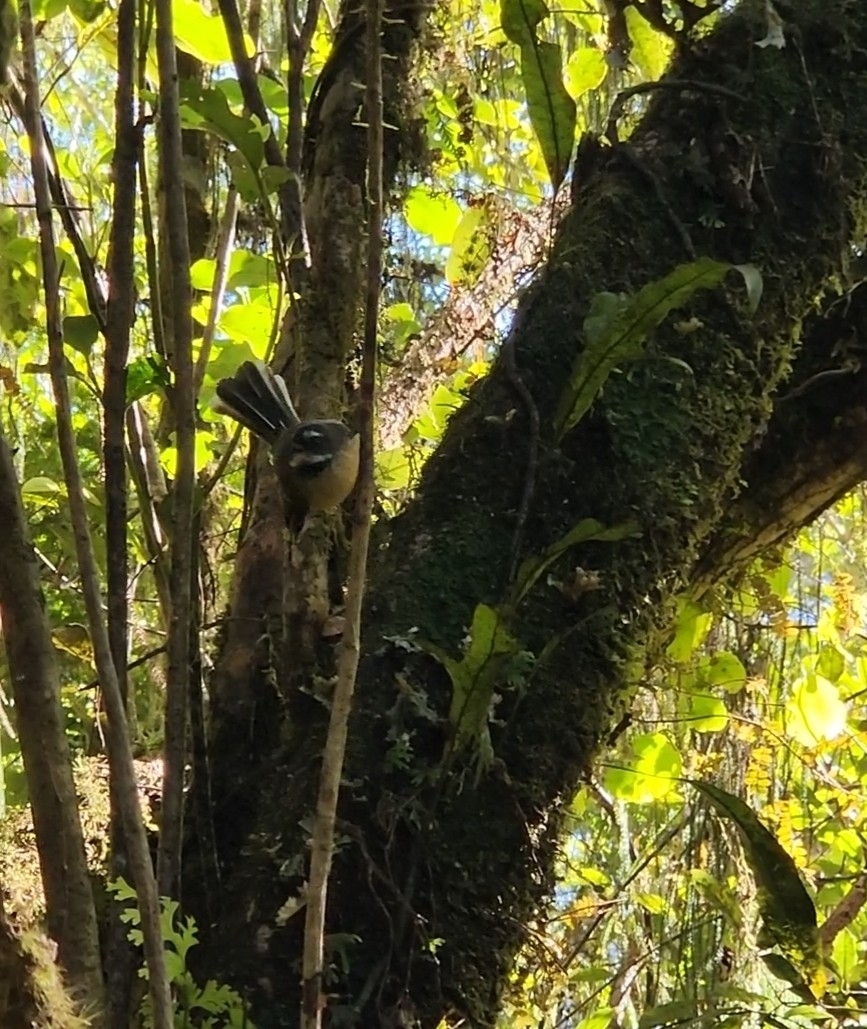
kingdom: Animalia
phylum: Chordata
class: Aves
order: Passeriformes
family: Rhipiduridae
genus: Rhipidura
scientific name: Rhipidura fuliginosa
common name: New zealand fantail
